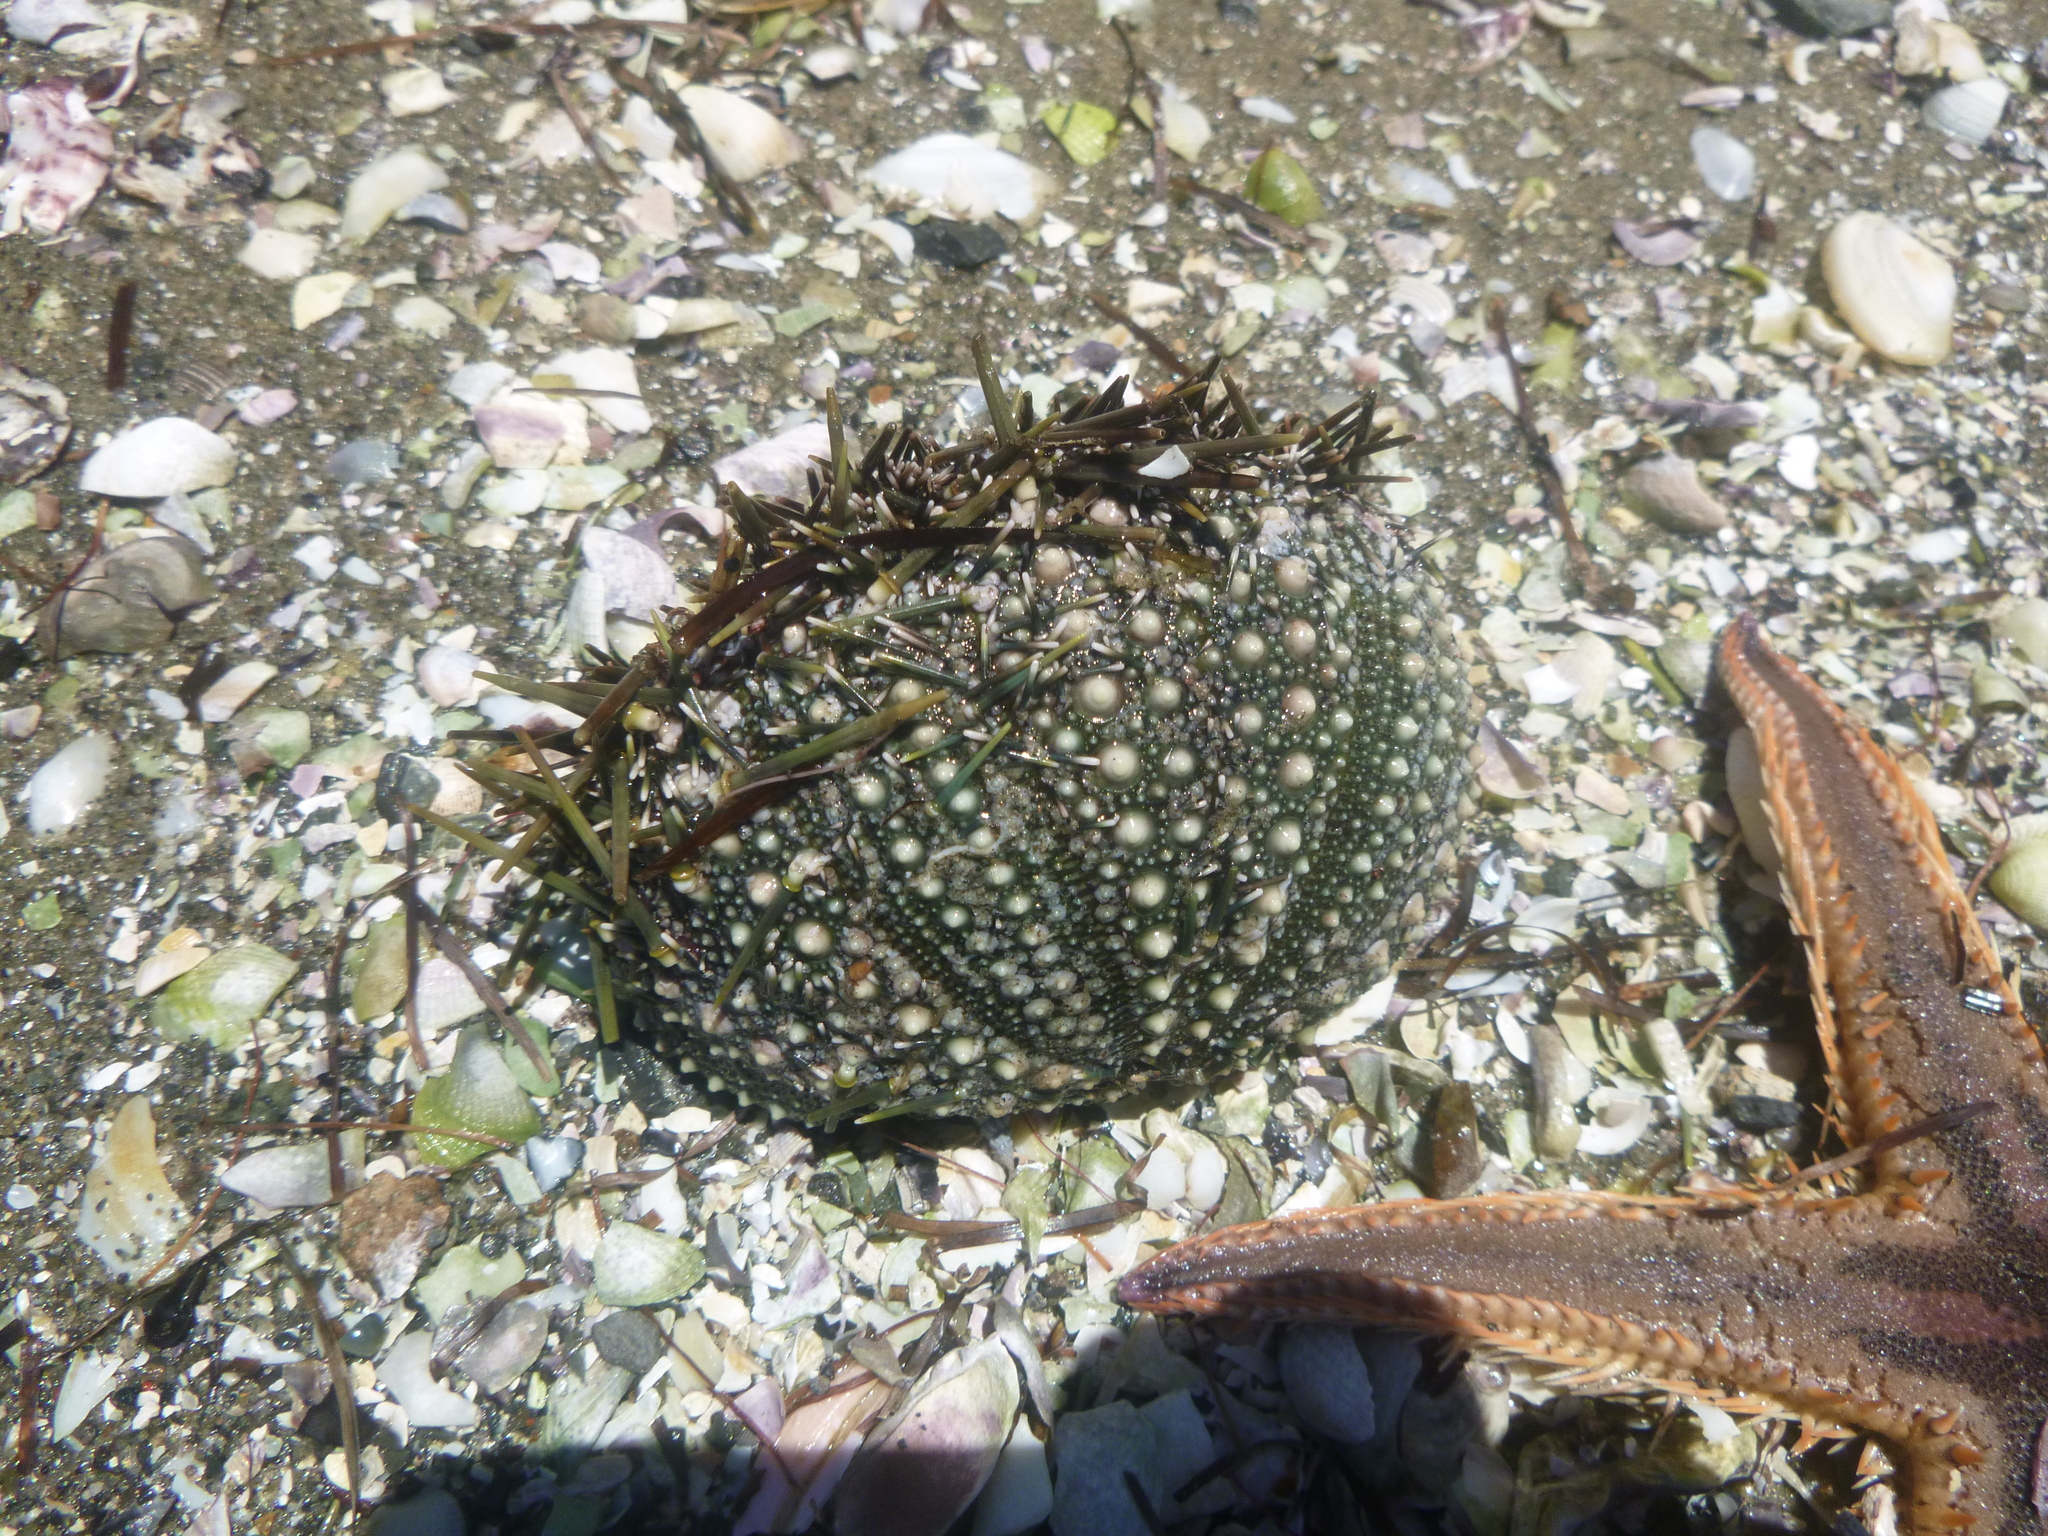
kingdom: Animalia
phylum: Echinodermata
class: Echinoidea
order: Camarodonta
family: Echinometridae
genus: Evechinus
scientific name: Evechinus chloroticus
